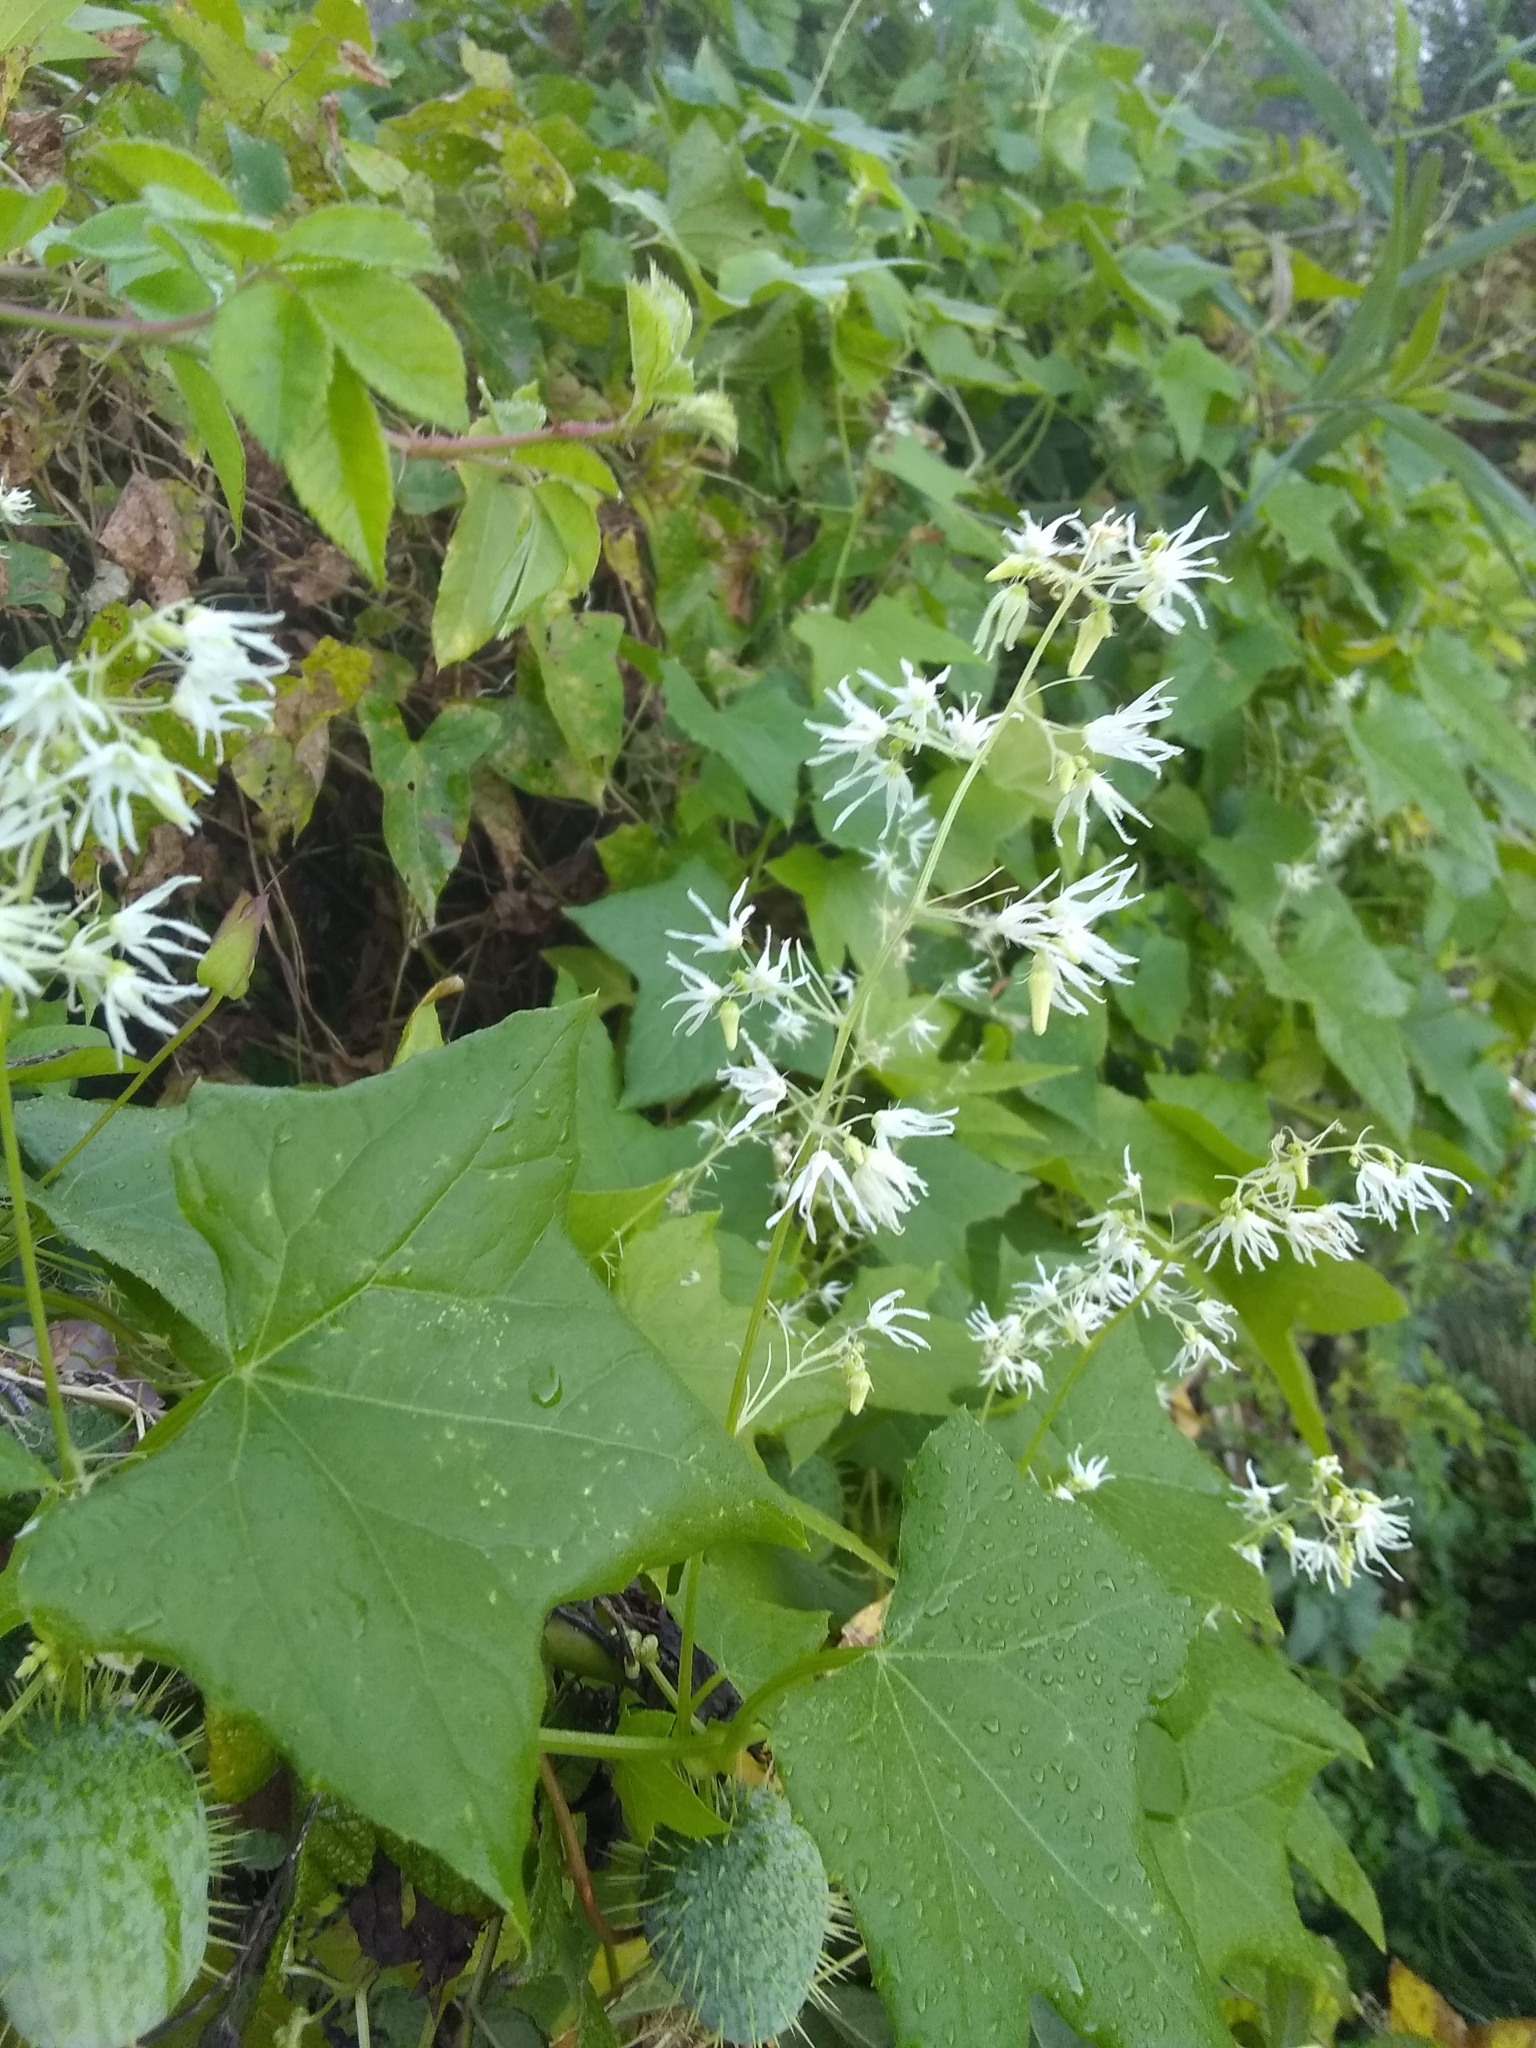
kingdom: Plantae
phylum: Tracheophyta
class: Magnoliopsida
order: Cucurbitales
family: Cucurbitaceae
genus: Echinocystis
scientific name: Echinocystis lobata
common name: Wild cucumber
